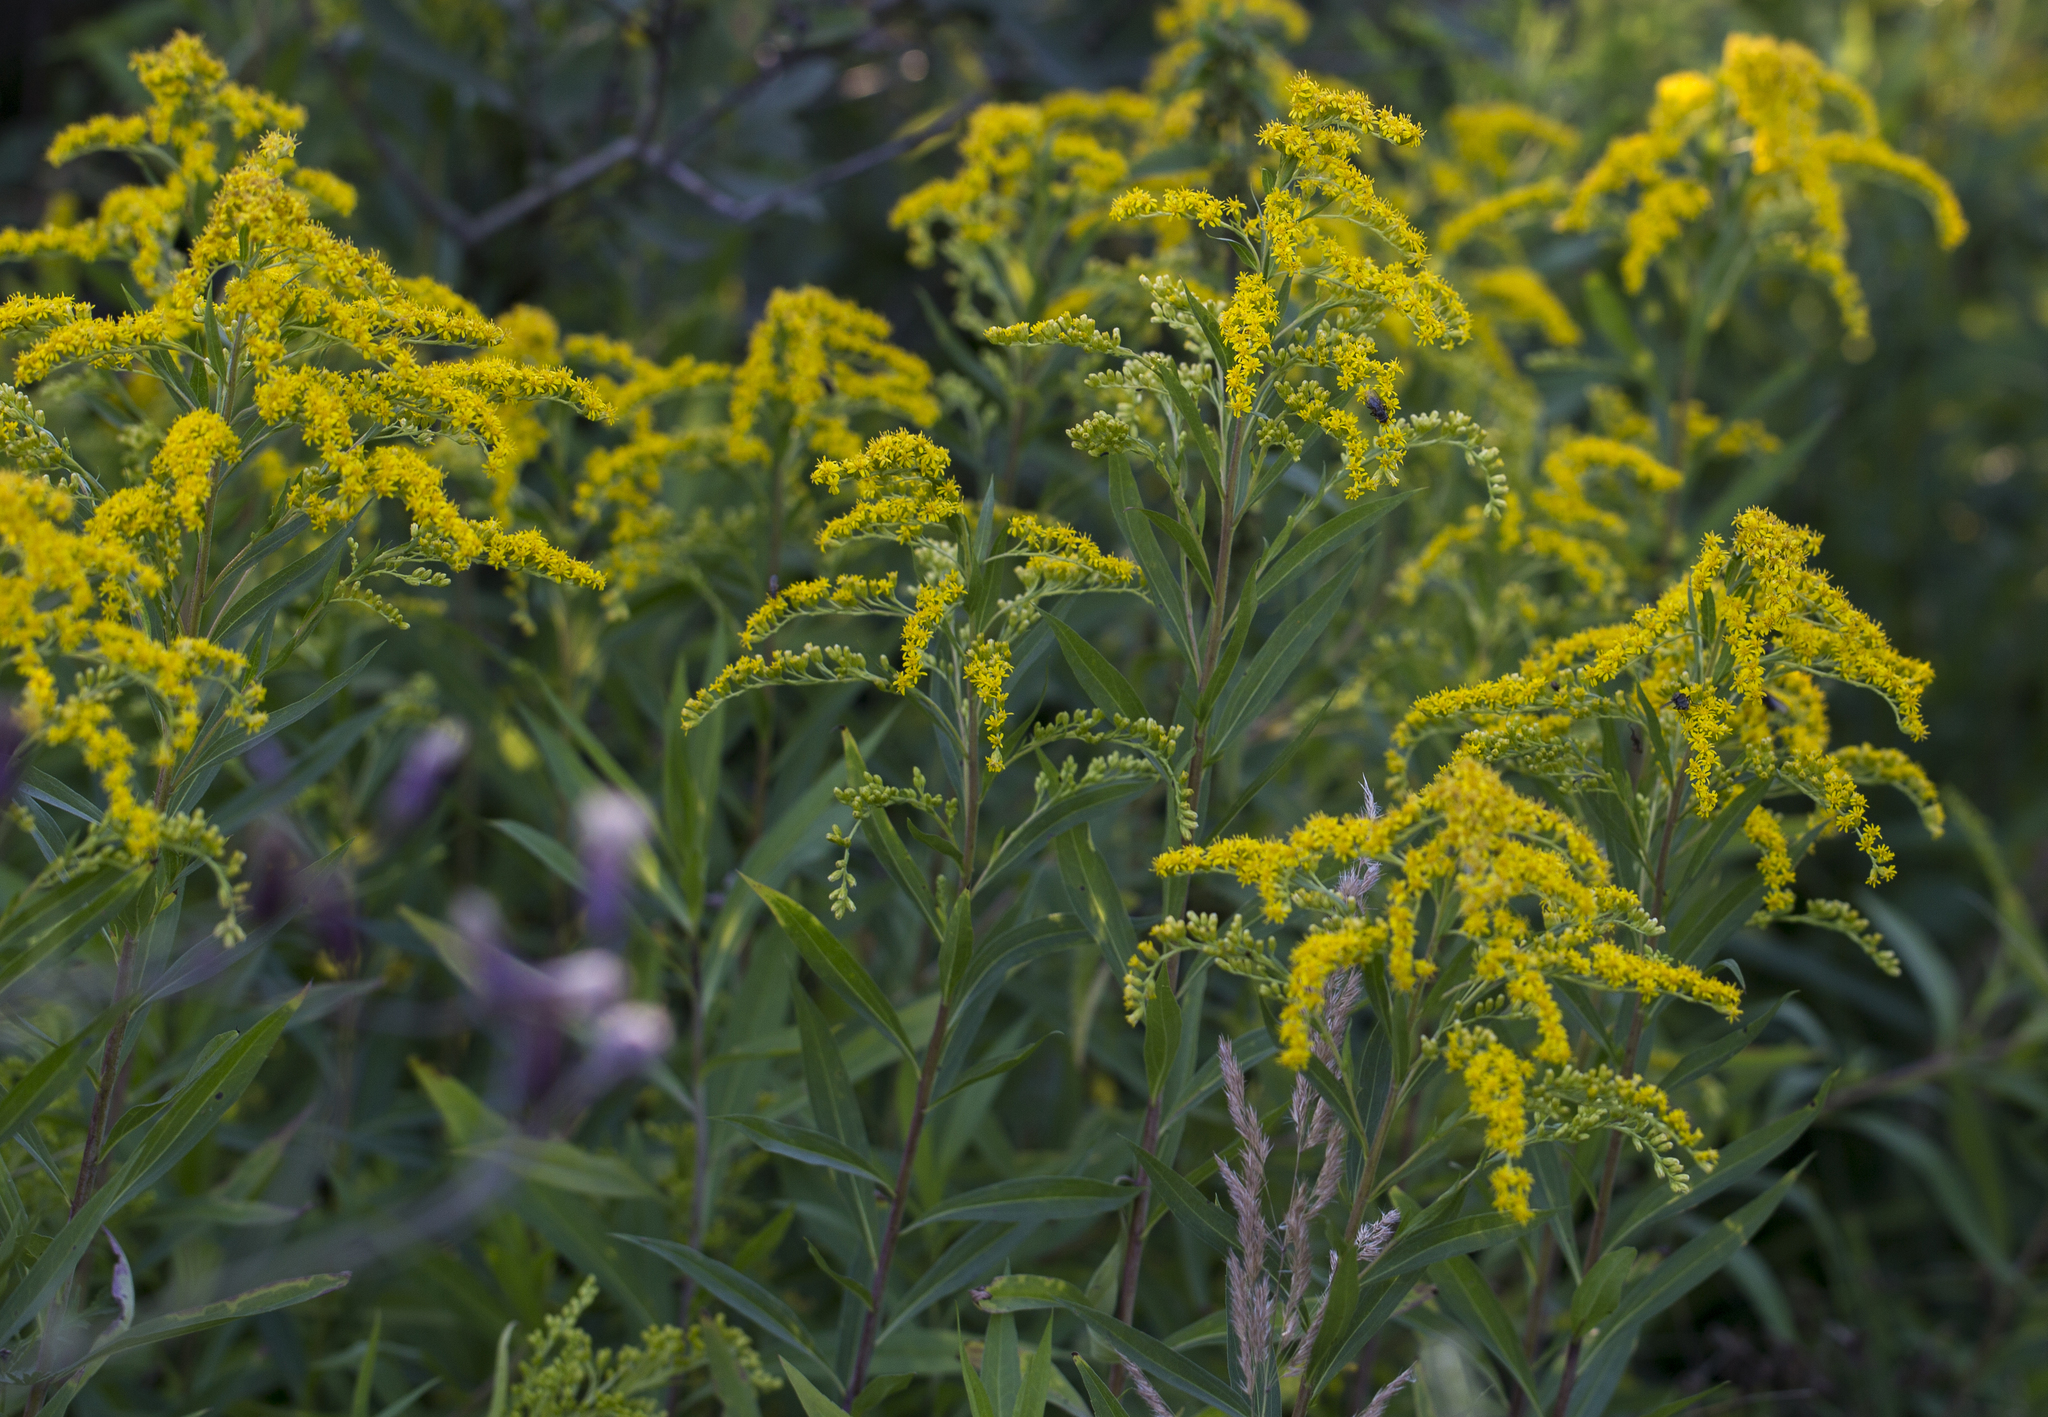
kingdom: Plantae
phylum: Tracheophyta
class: Magnoliopsida
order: Asterales
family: Asteraceae
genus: Solidago
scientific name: Solidago gigantea
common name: Giant goldenrod
